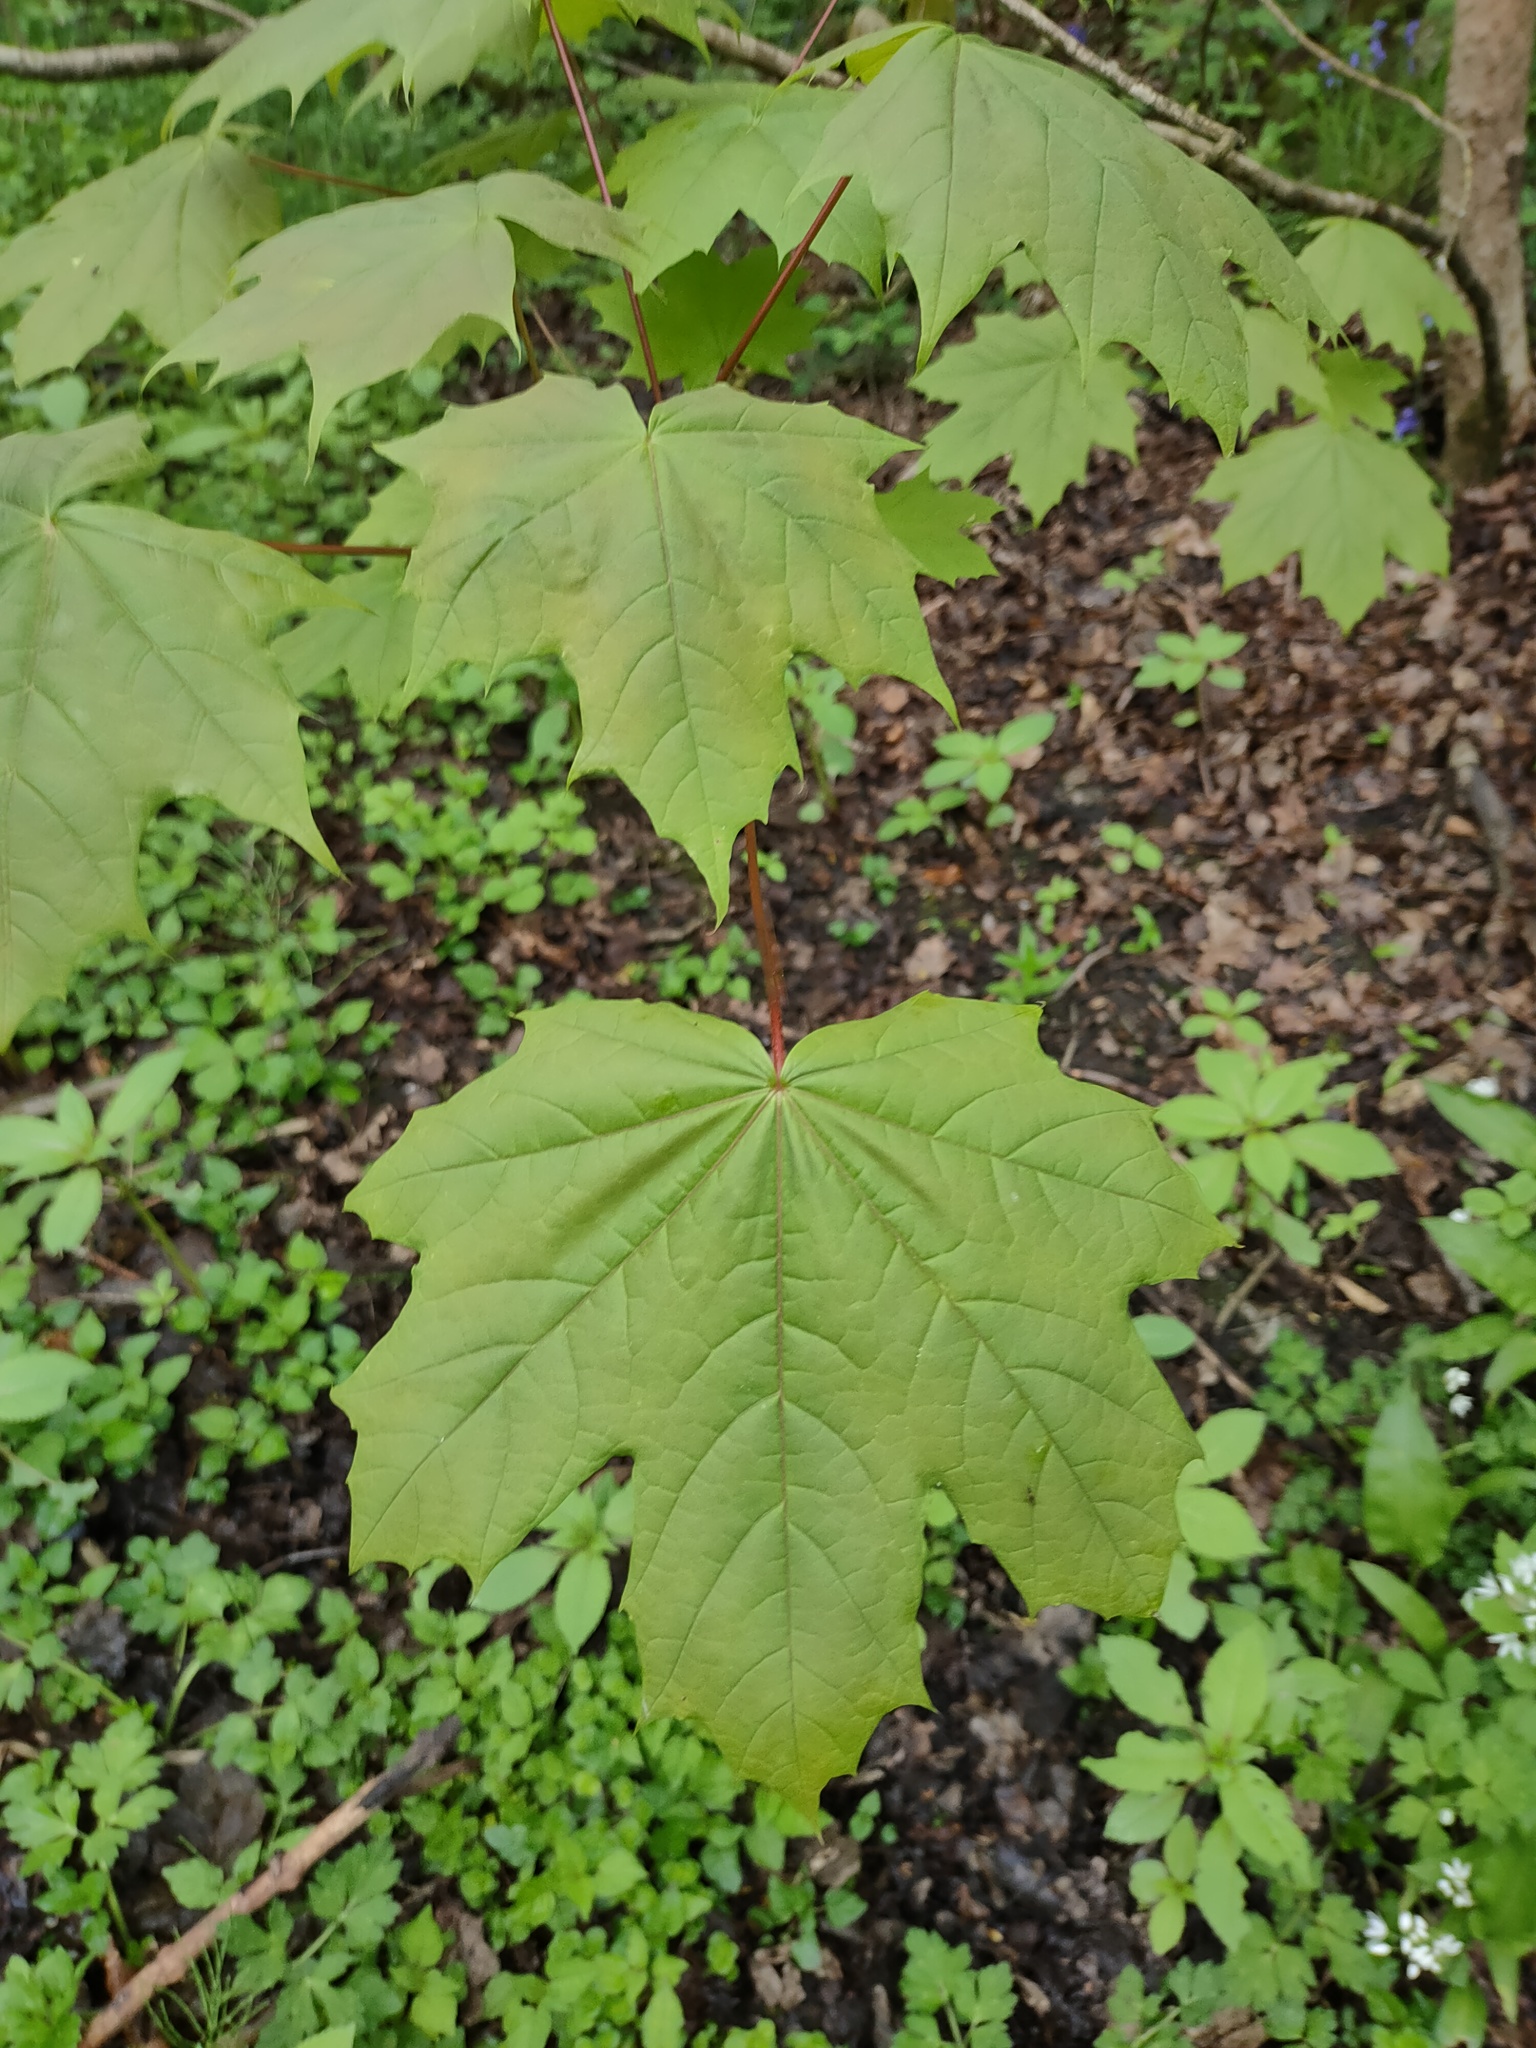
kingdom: Plantae
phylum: Tracheophyta
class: Magnoliopsida
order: Sapindales
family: Sapindaceae
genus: Acer
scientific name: Acer platanoides
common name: Norway maple
